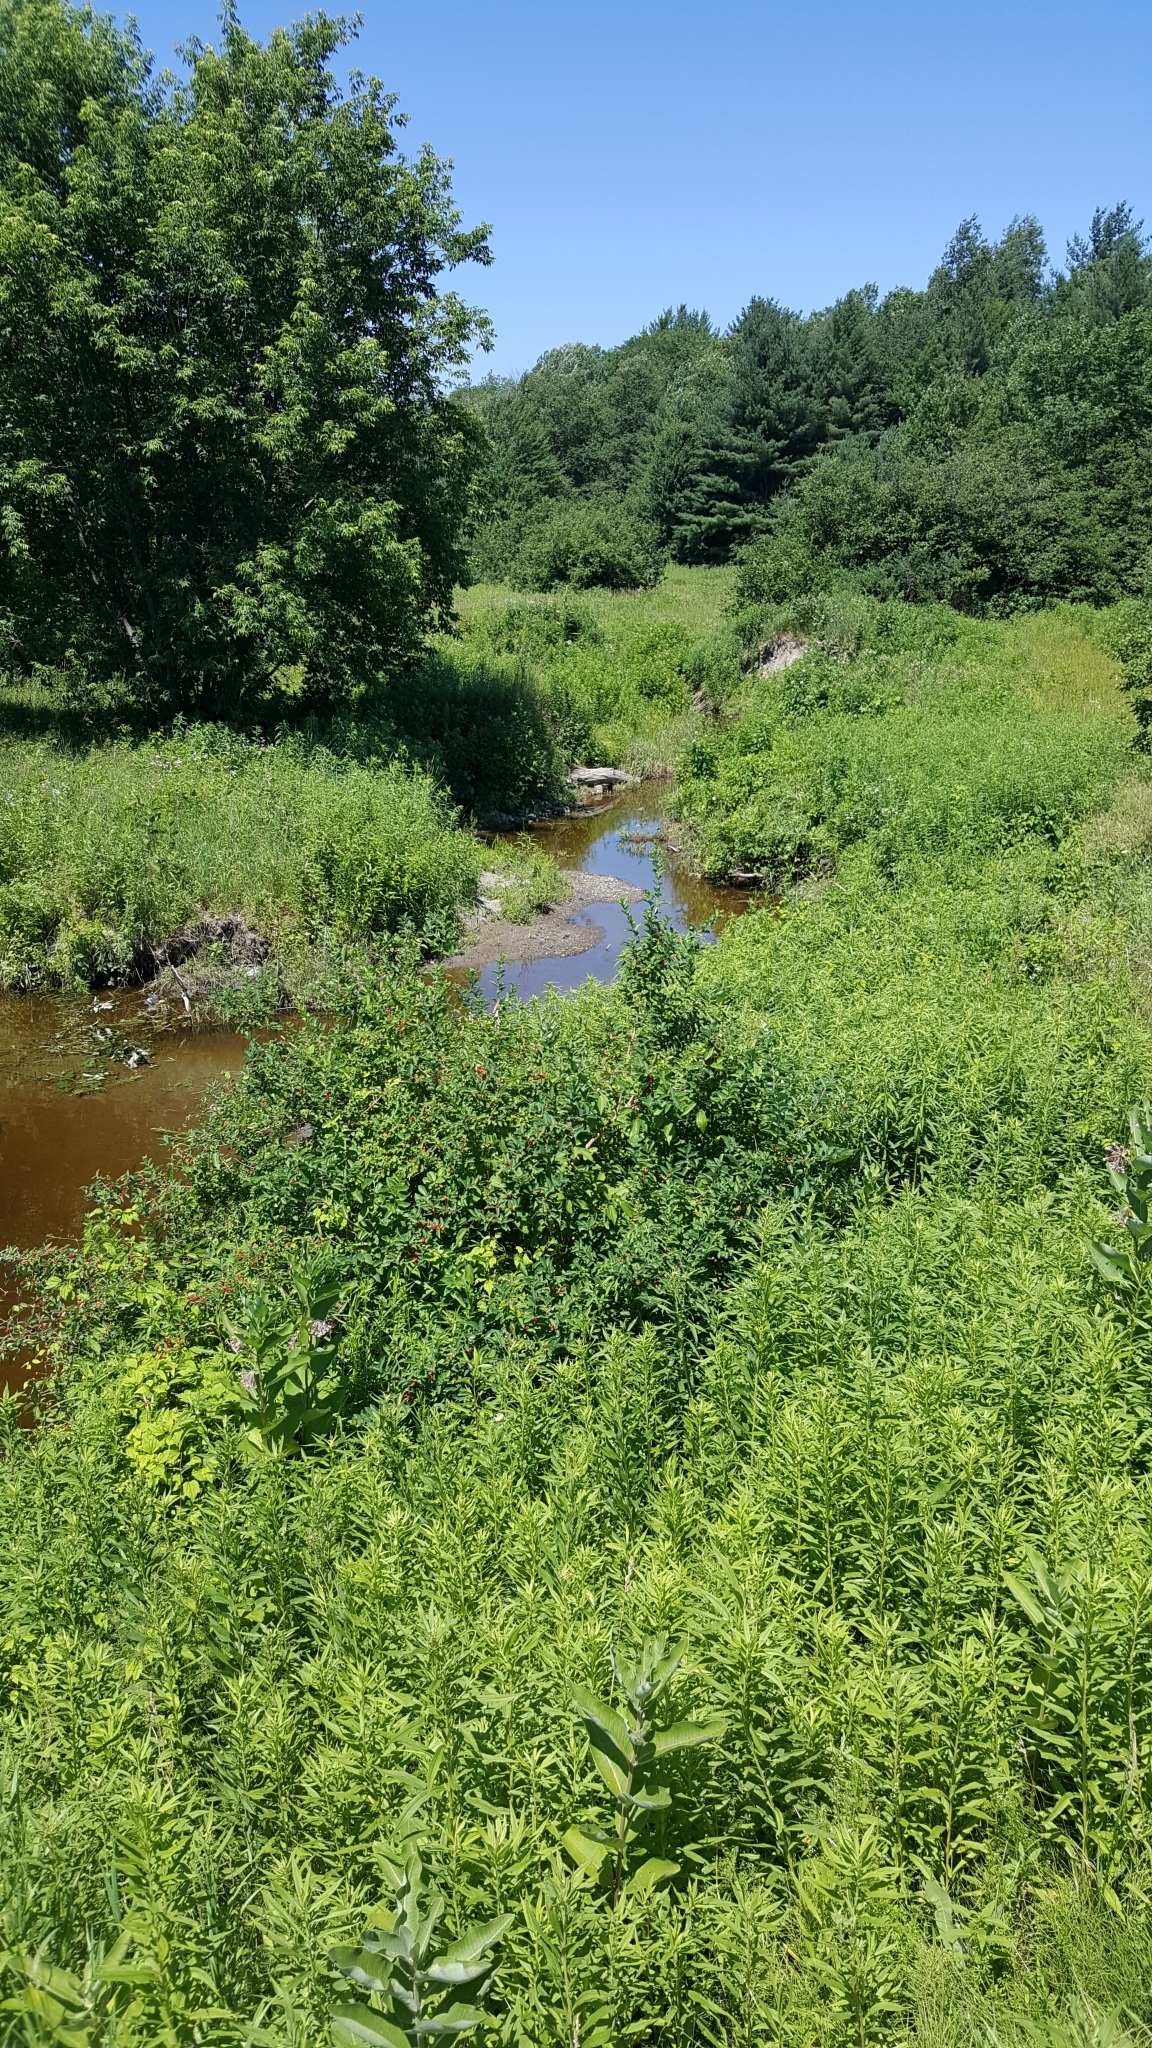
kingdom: Plantae
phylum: Tracheophyta
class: Magnoliopsida
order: Sapindales
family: Sapindaceae
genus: Acer
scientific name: Acer negundo
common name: Ashleaf maple
